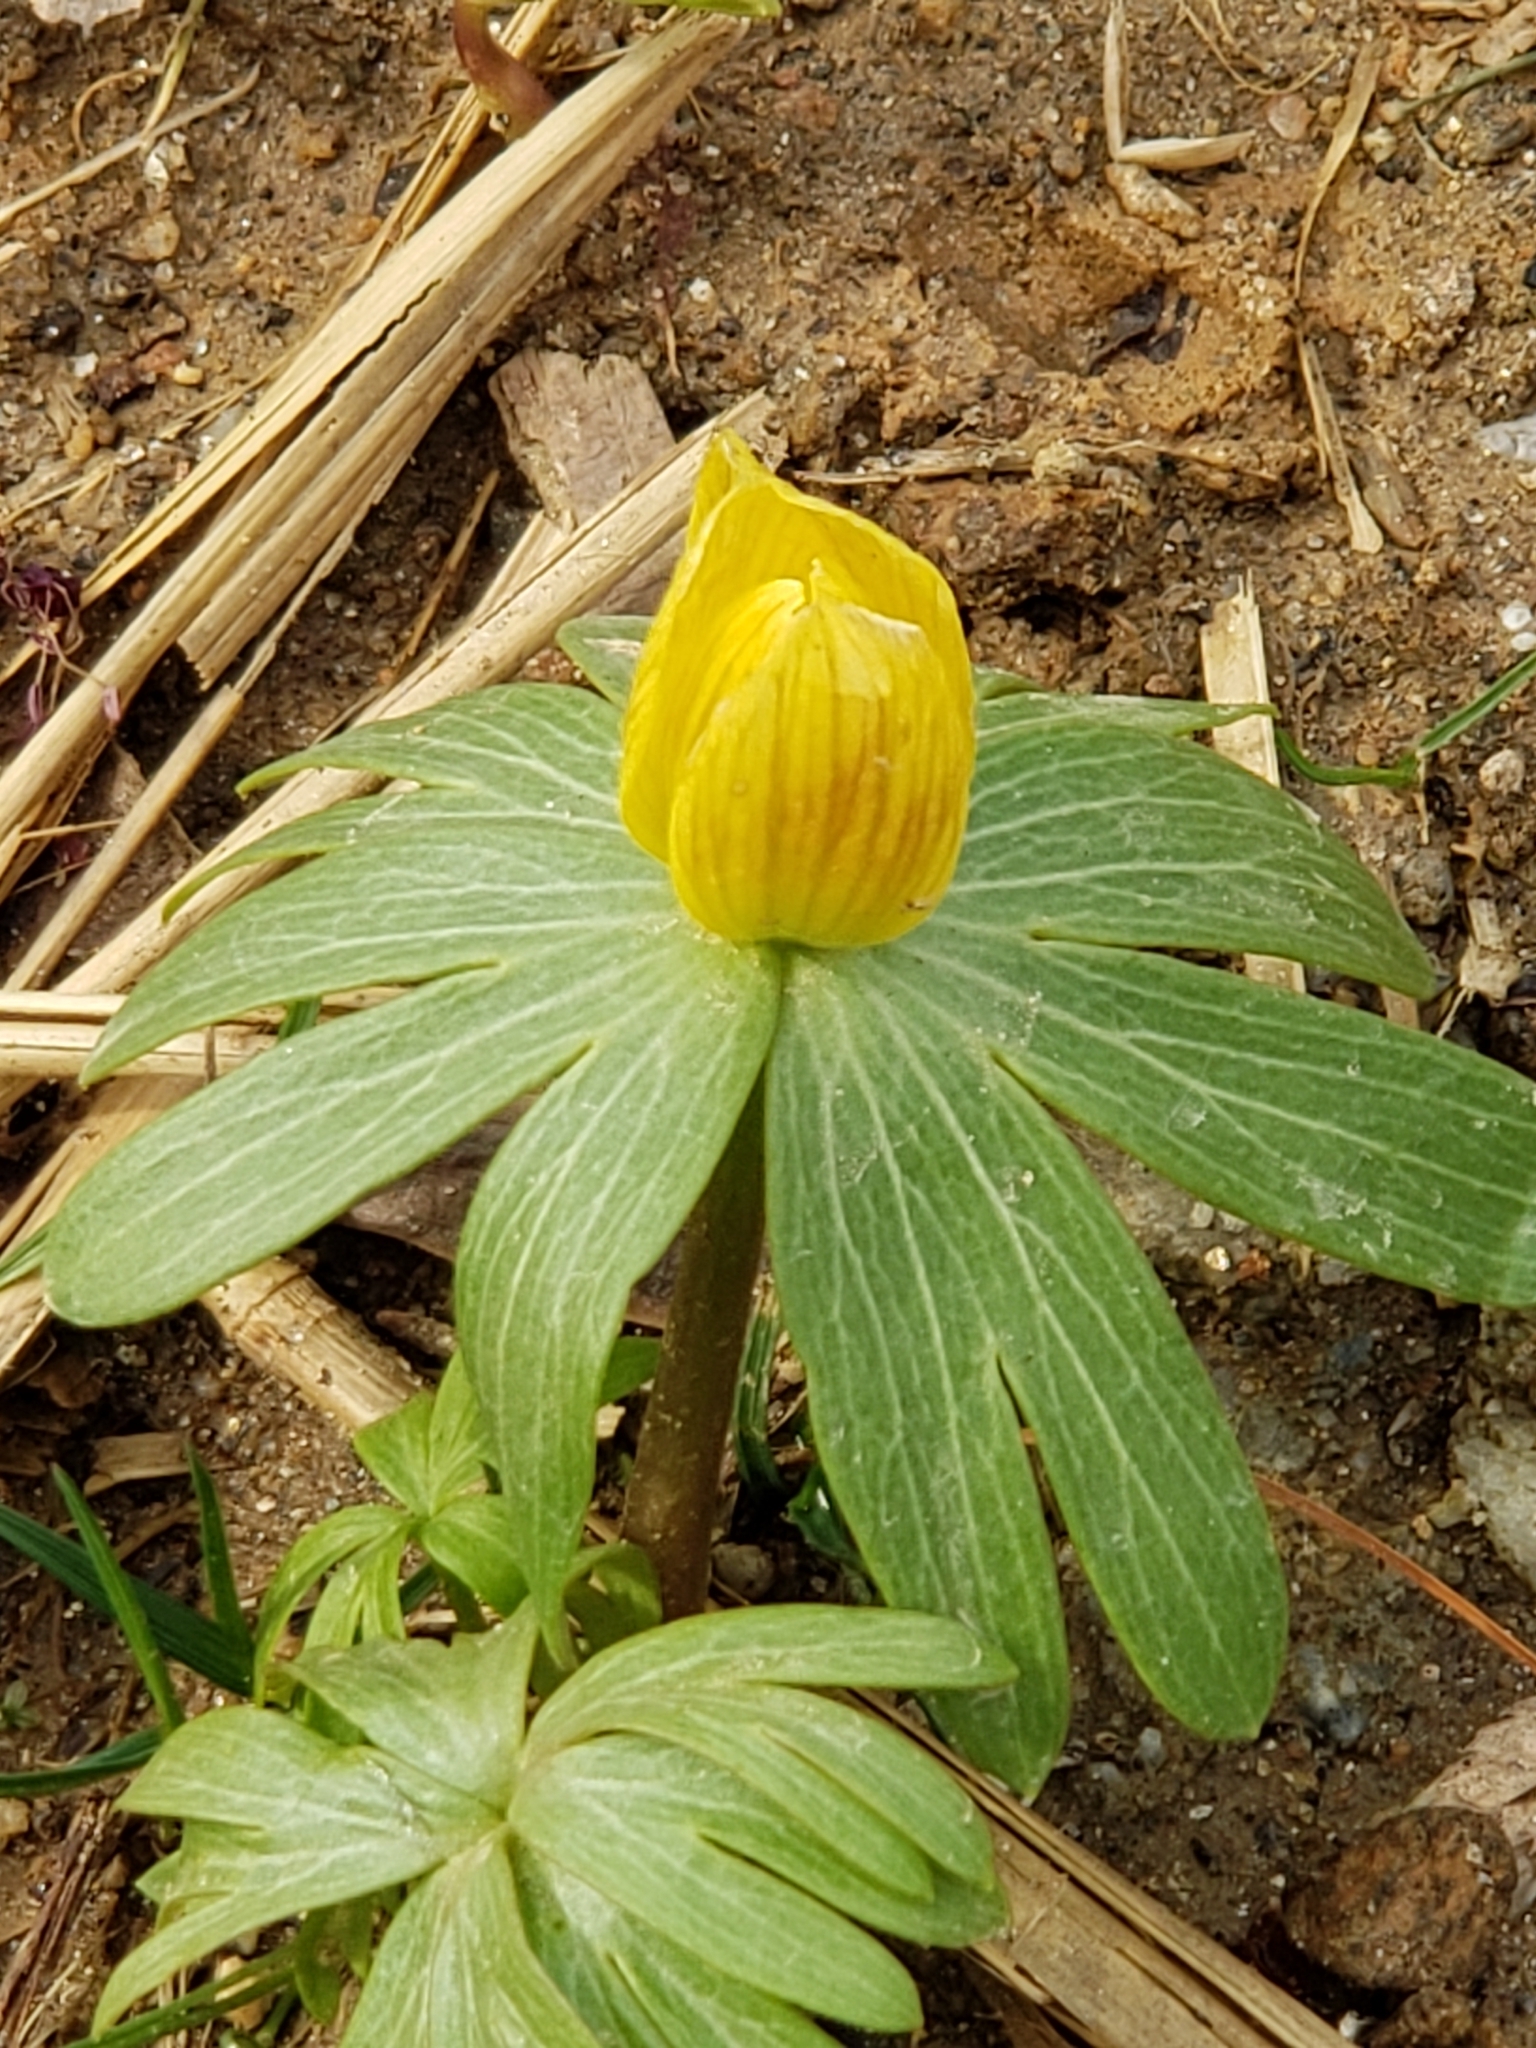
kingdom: Plantae
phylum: Tracheophyta
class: Magnoliopsida
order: Ranunculales
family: Ranunculaceae
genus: Eranthis
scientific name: Eranthis hyemalis
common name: Winter aconite
